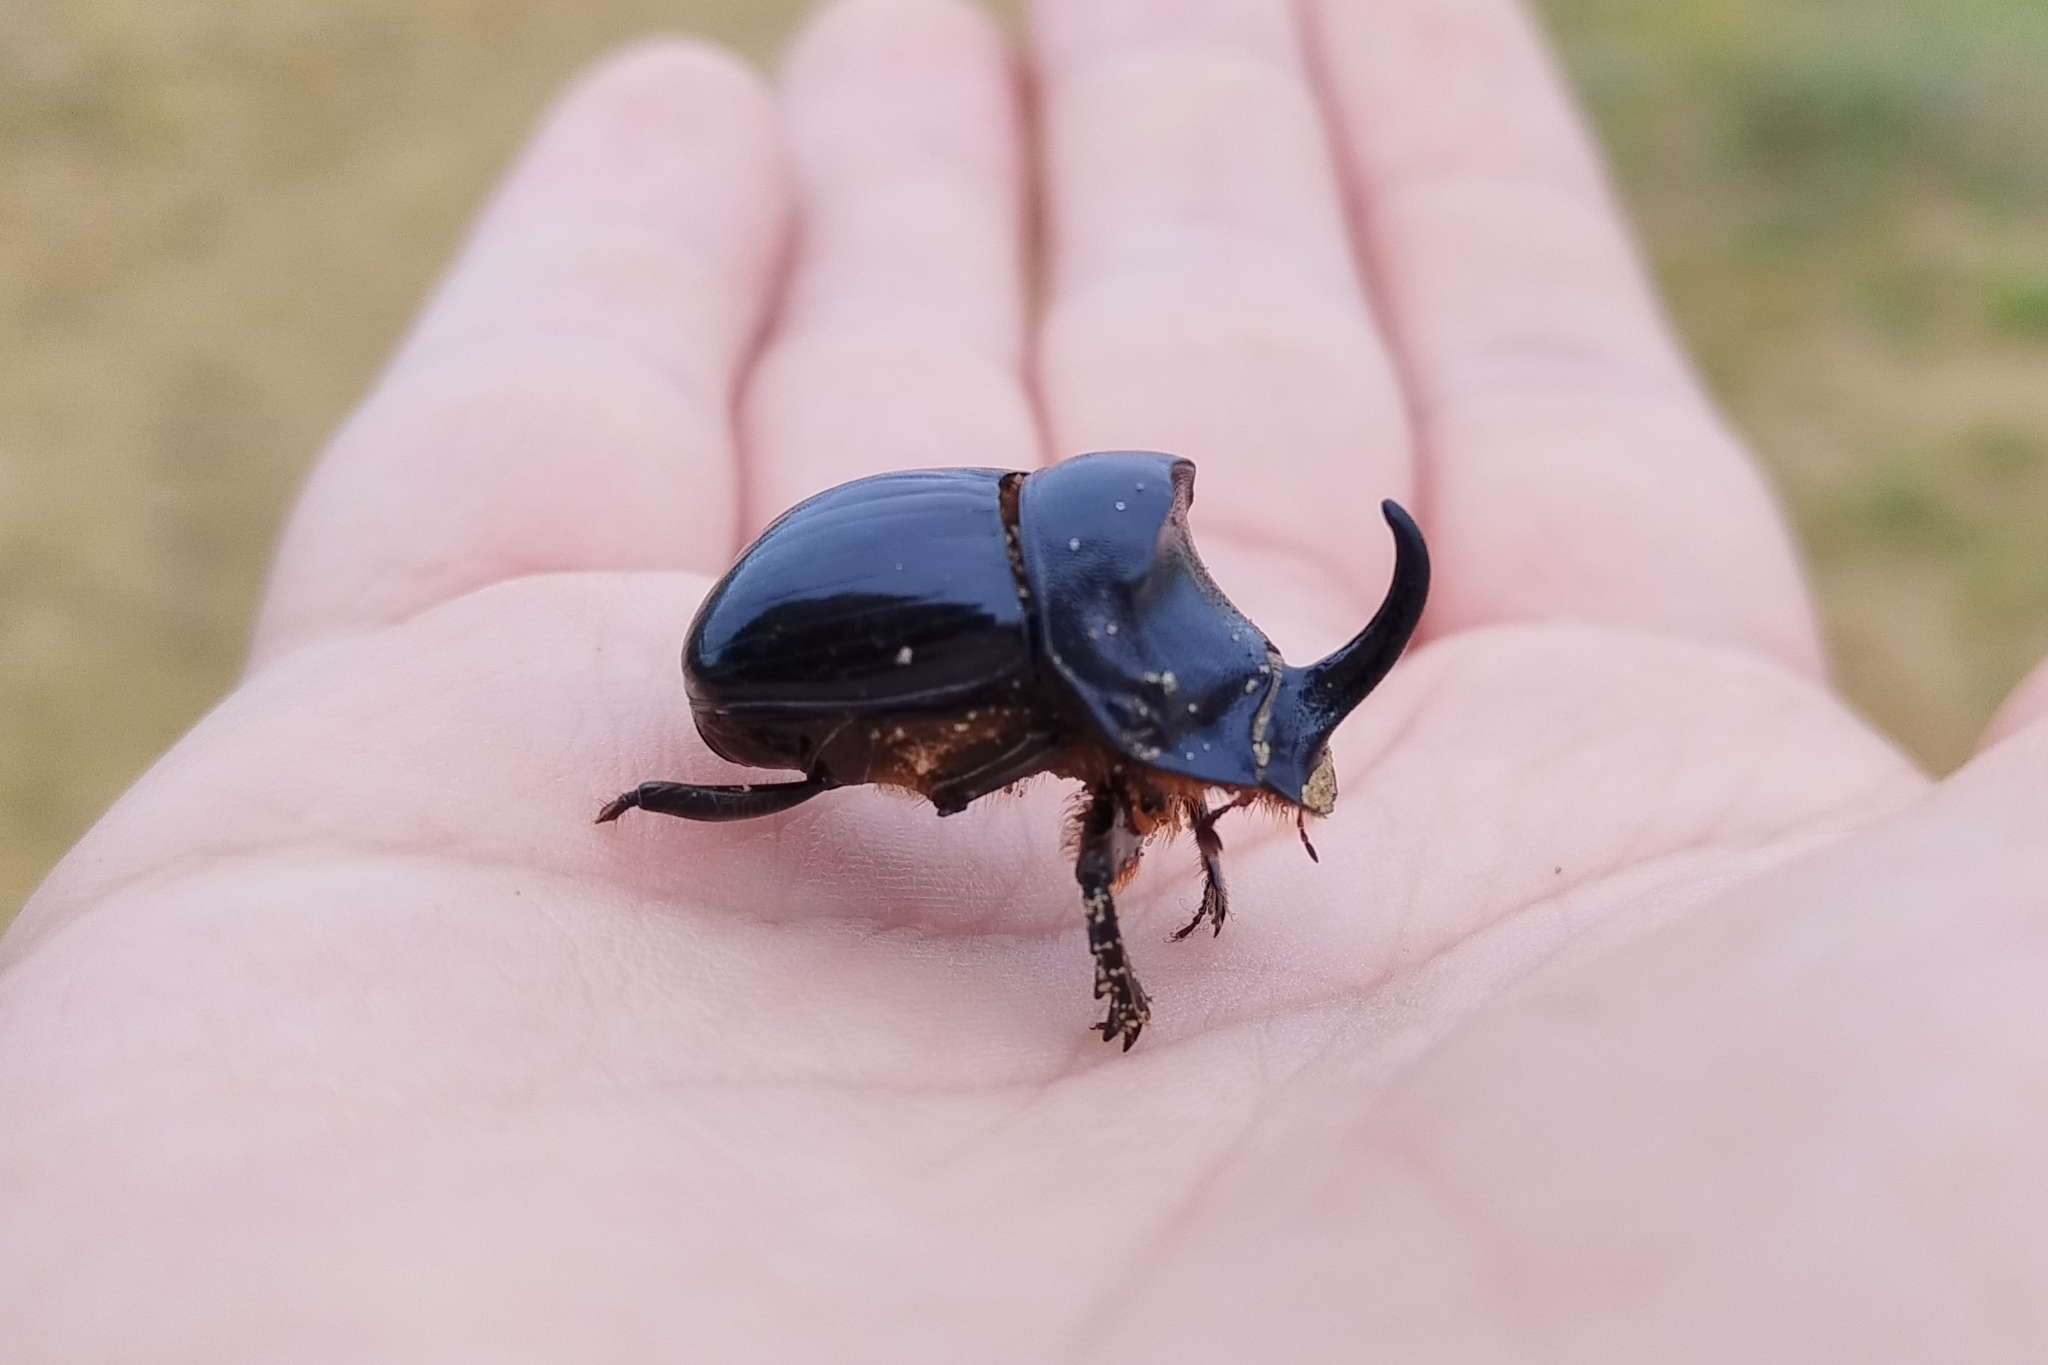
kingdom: Animalia
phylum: Arthropoda
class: Insecta
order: Coleoptera
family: Scarabaeidae
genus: Copris
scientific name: Copris hispanus
